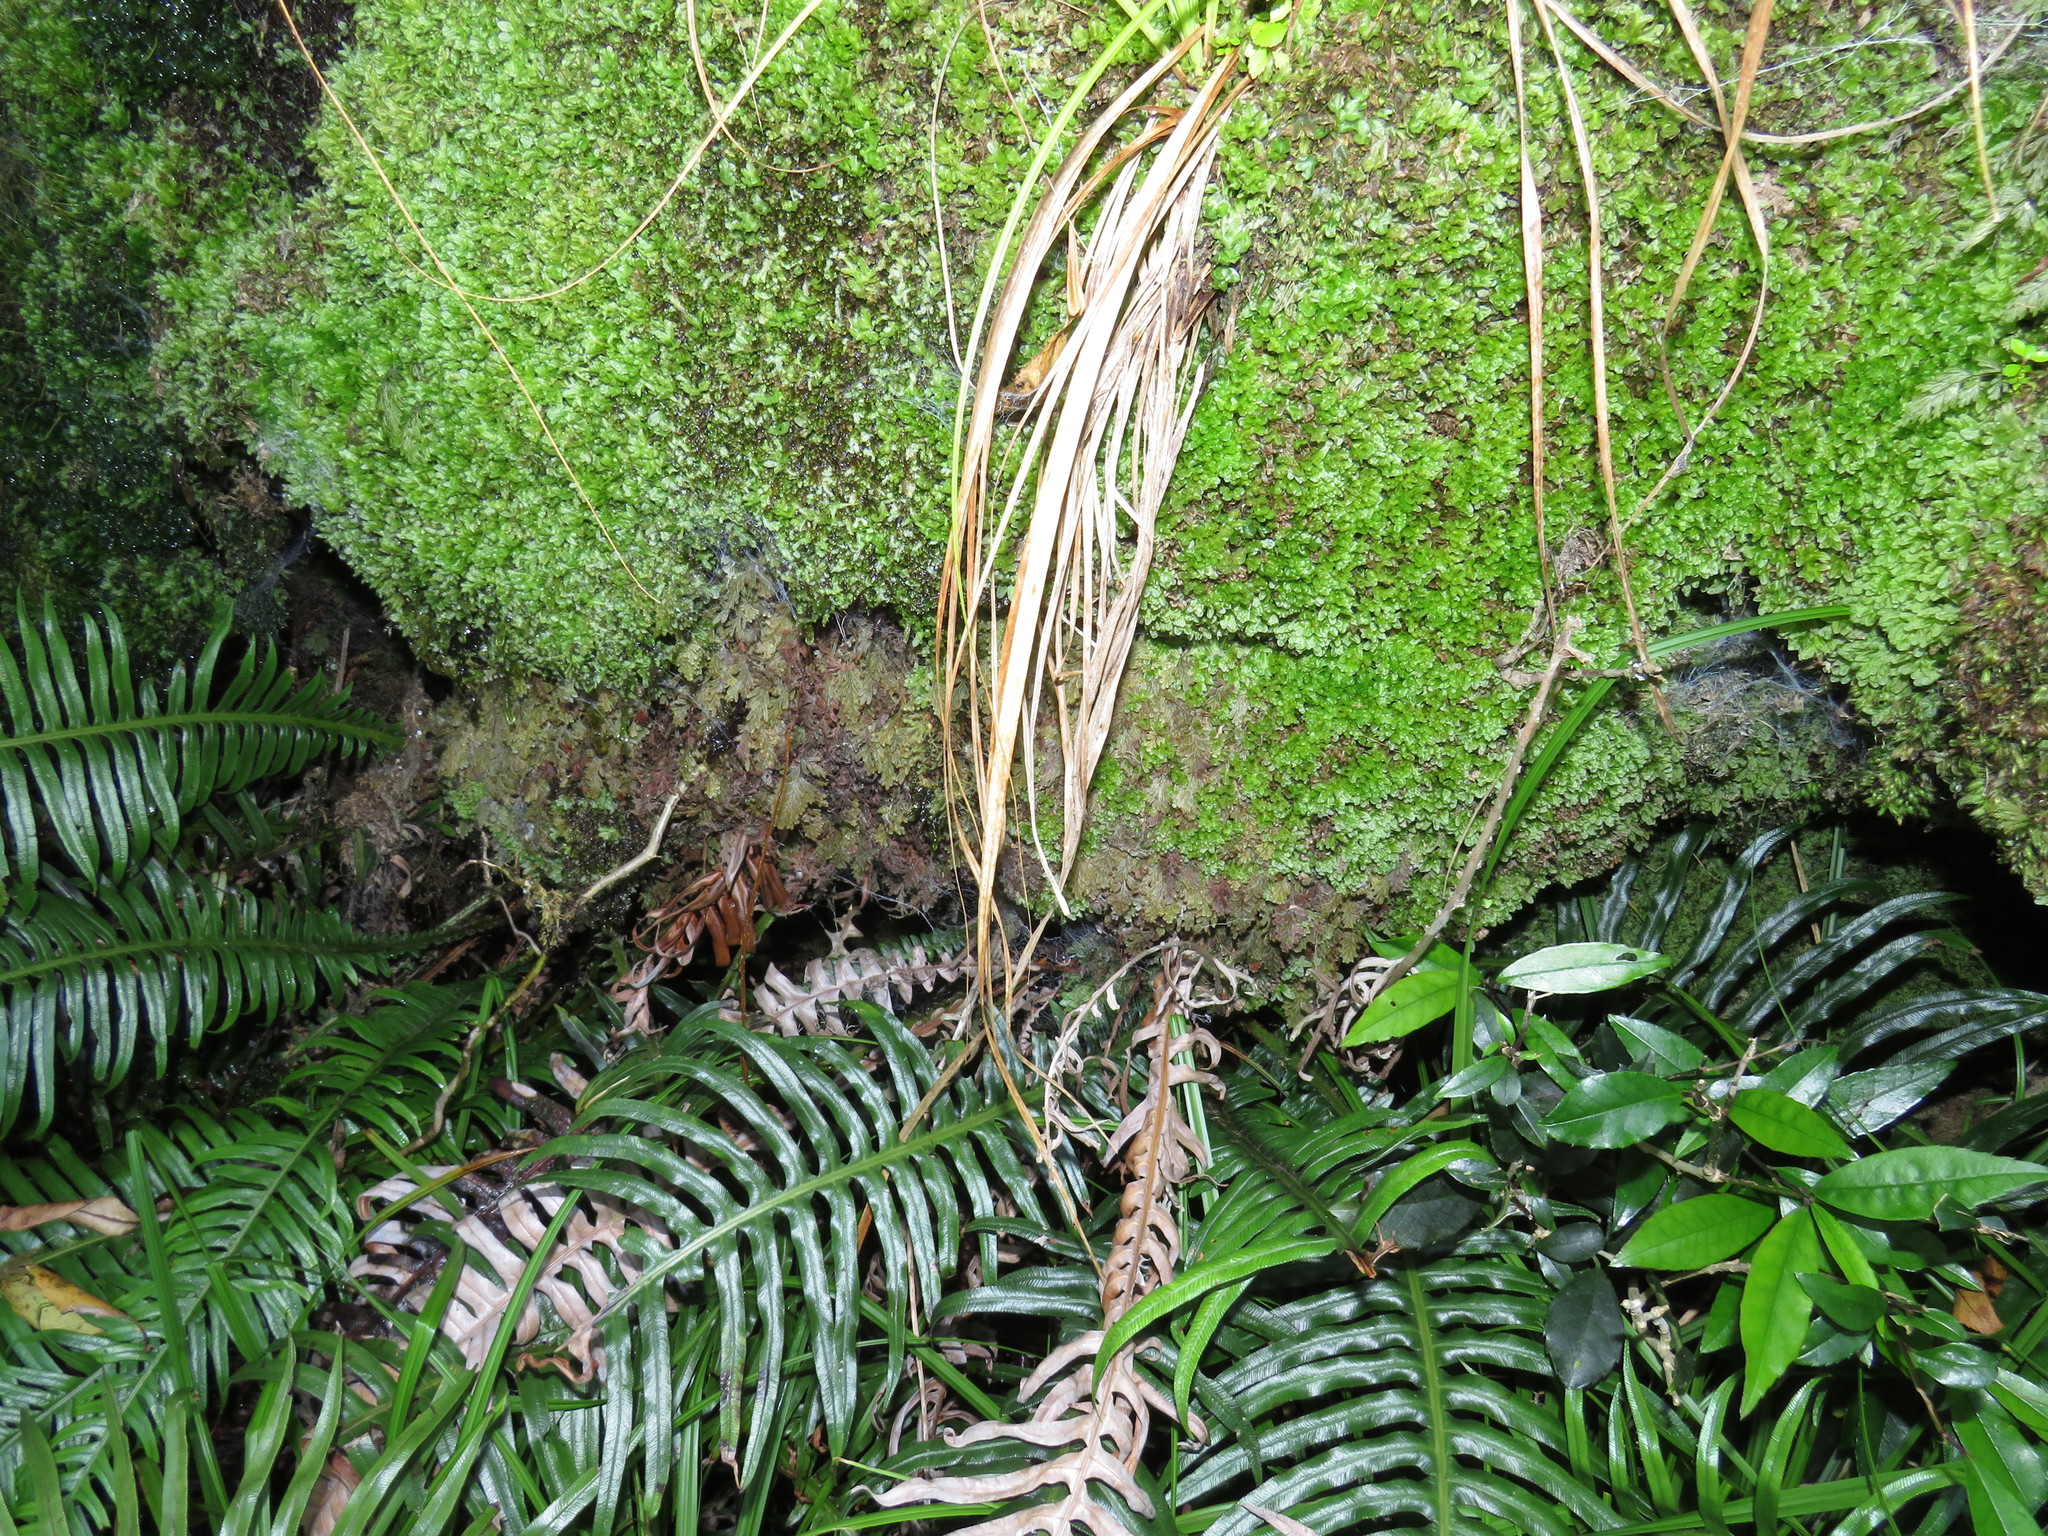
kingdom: Plantae
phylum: Tracheophyta
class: Polypodiopsida
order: Hymenophyllales
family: Hymenophyllaceae
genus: Hymenophyllum
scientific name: Hymenophyllum aeruginosum
